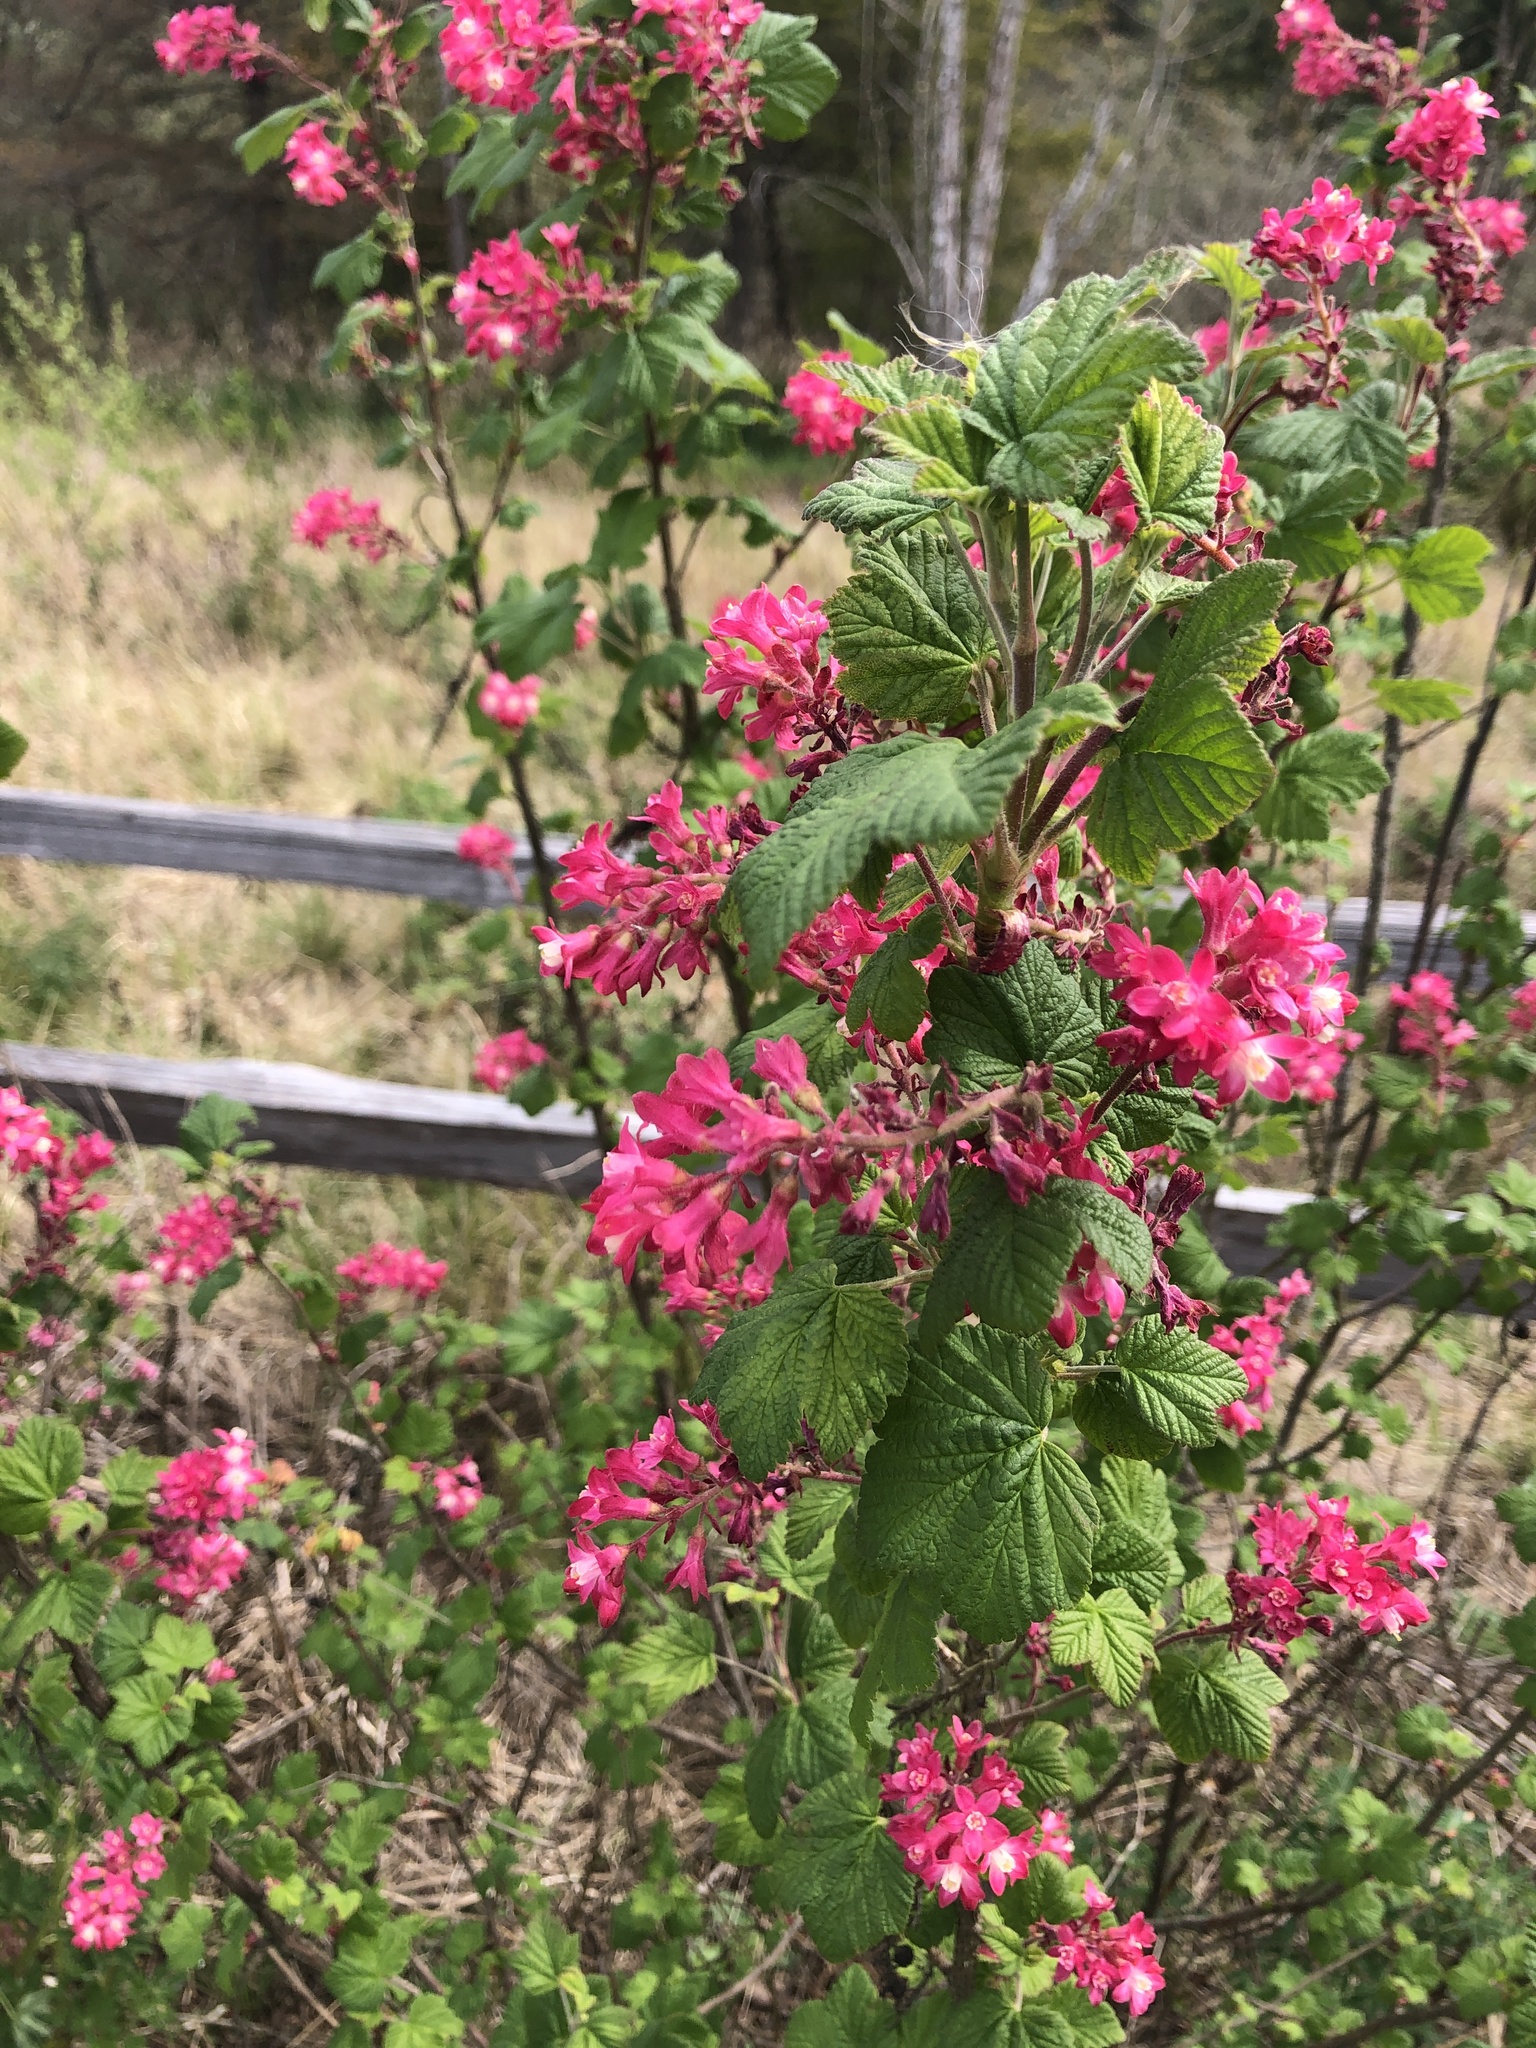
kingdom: Plantae
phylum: Tracheophyta
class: Magnoliopsida
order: Saxifragales
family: Grossulariaceae
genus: Ribes
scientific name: Ribes sanguineum
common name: Flowering currant
